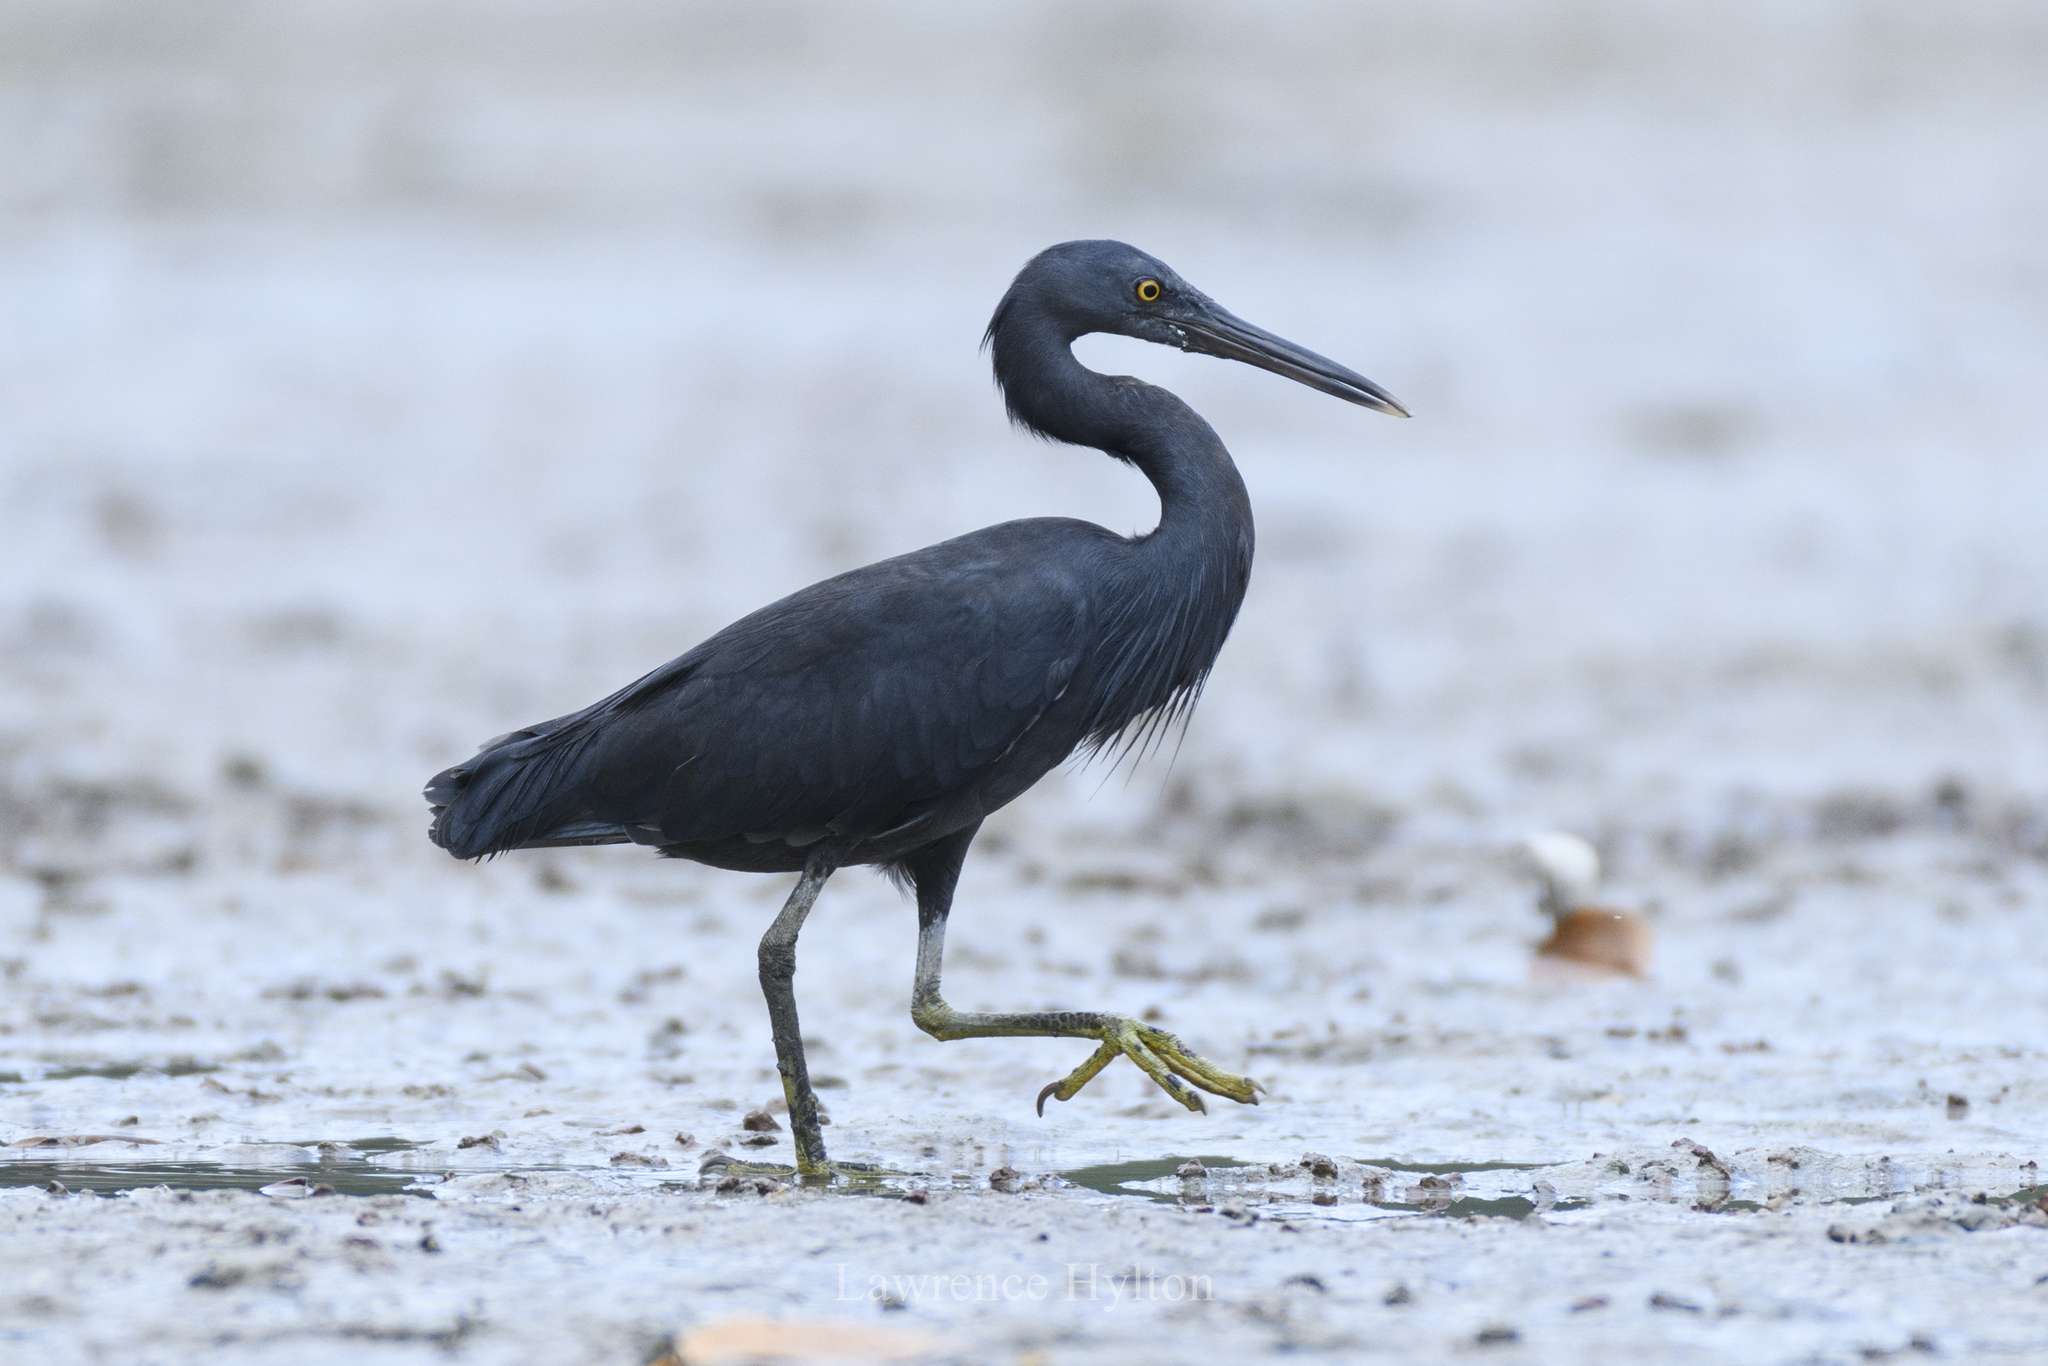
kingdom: Animalia
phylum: Chordata
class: Aves
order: Pelecaniformes
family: Ardeidae
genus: Egretta
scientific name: Egretta sacra
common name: Pacific reef heron
